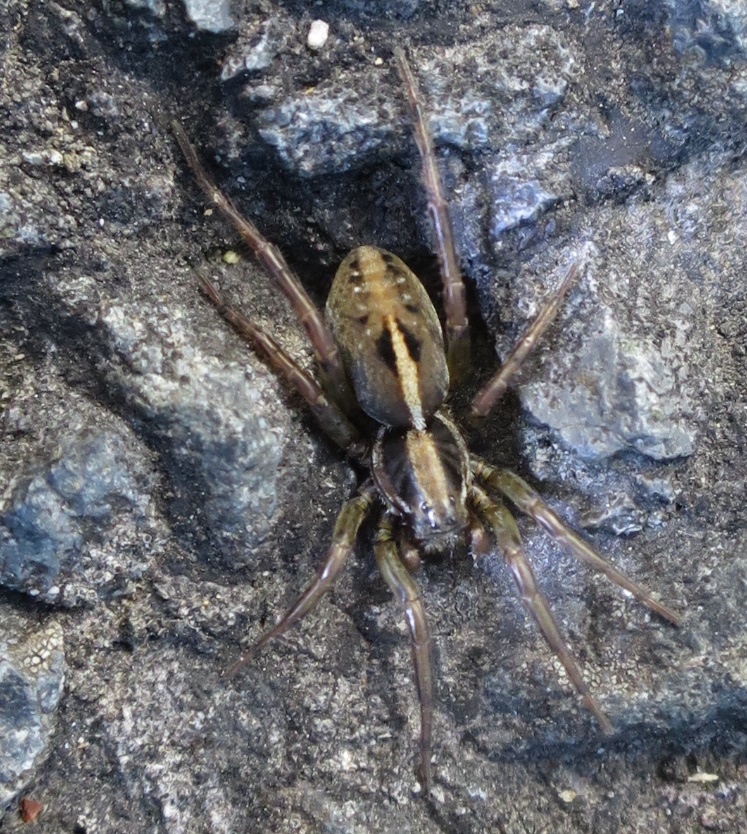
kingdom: Animalia
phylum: Arthropoda
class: Arachnida
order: Araneae
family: Lycosidae
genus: Artoriopsis
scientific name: Artoriopsis expolita
